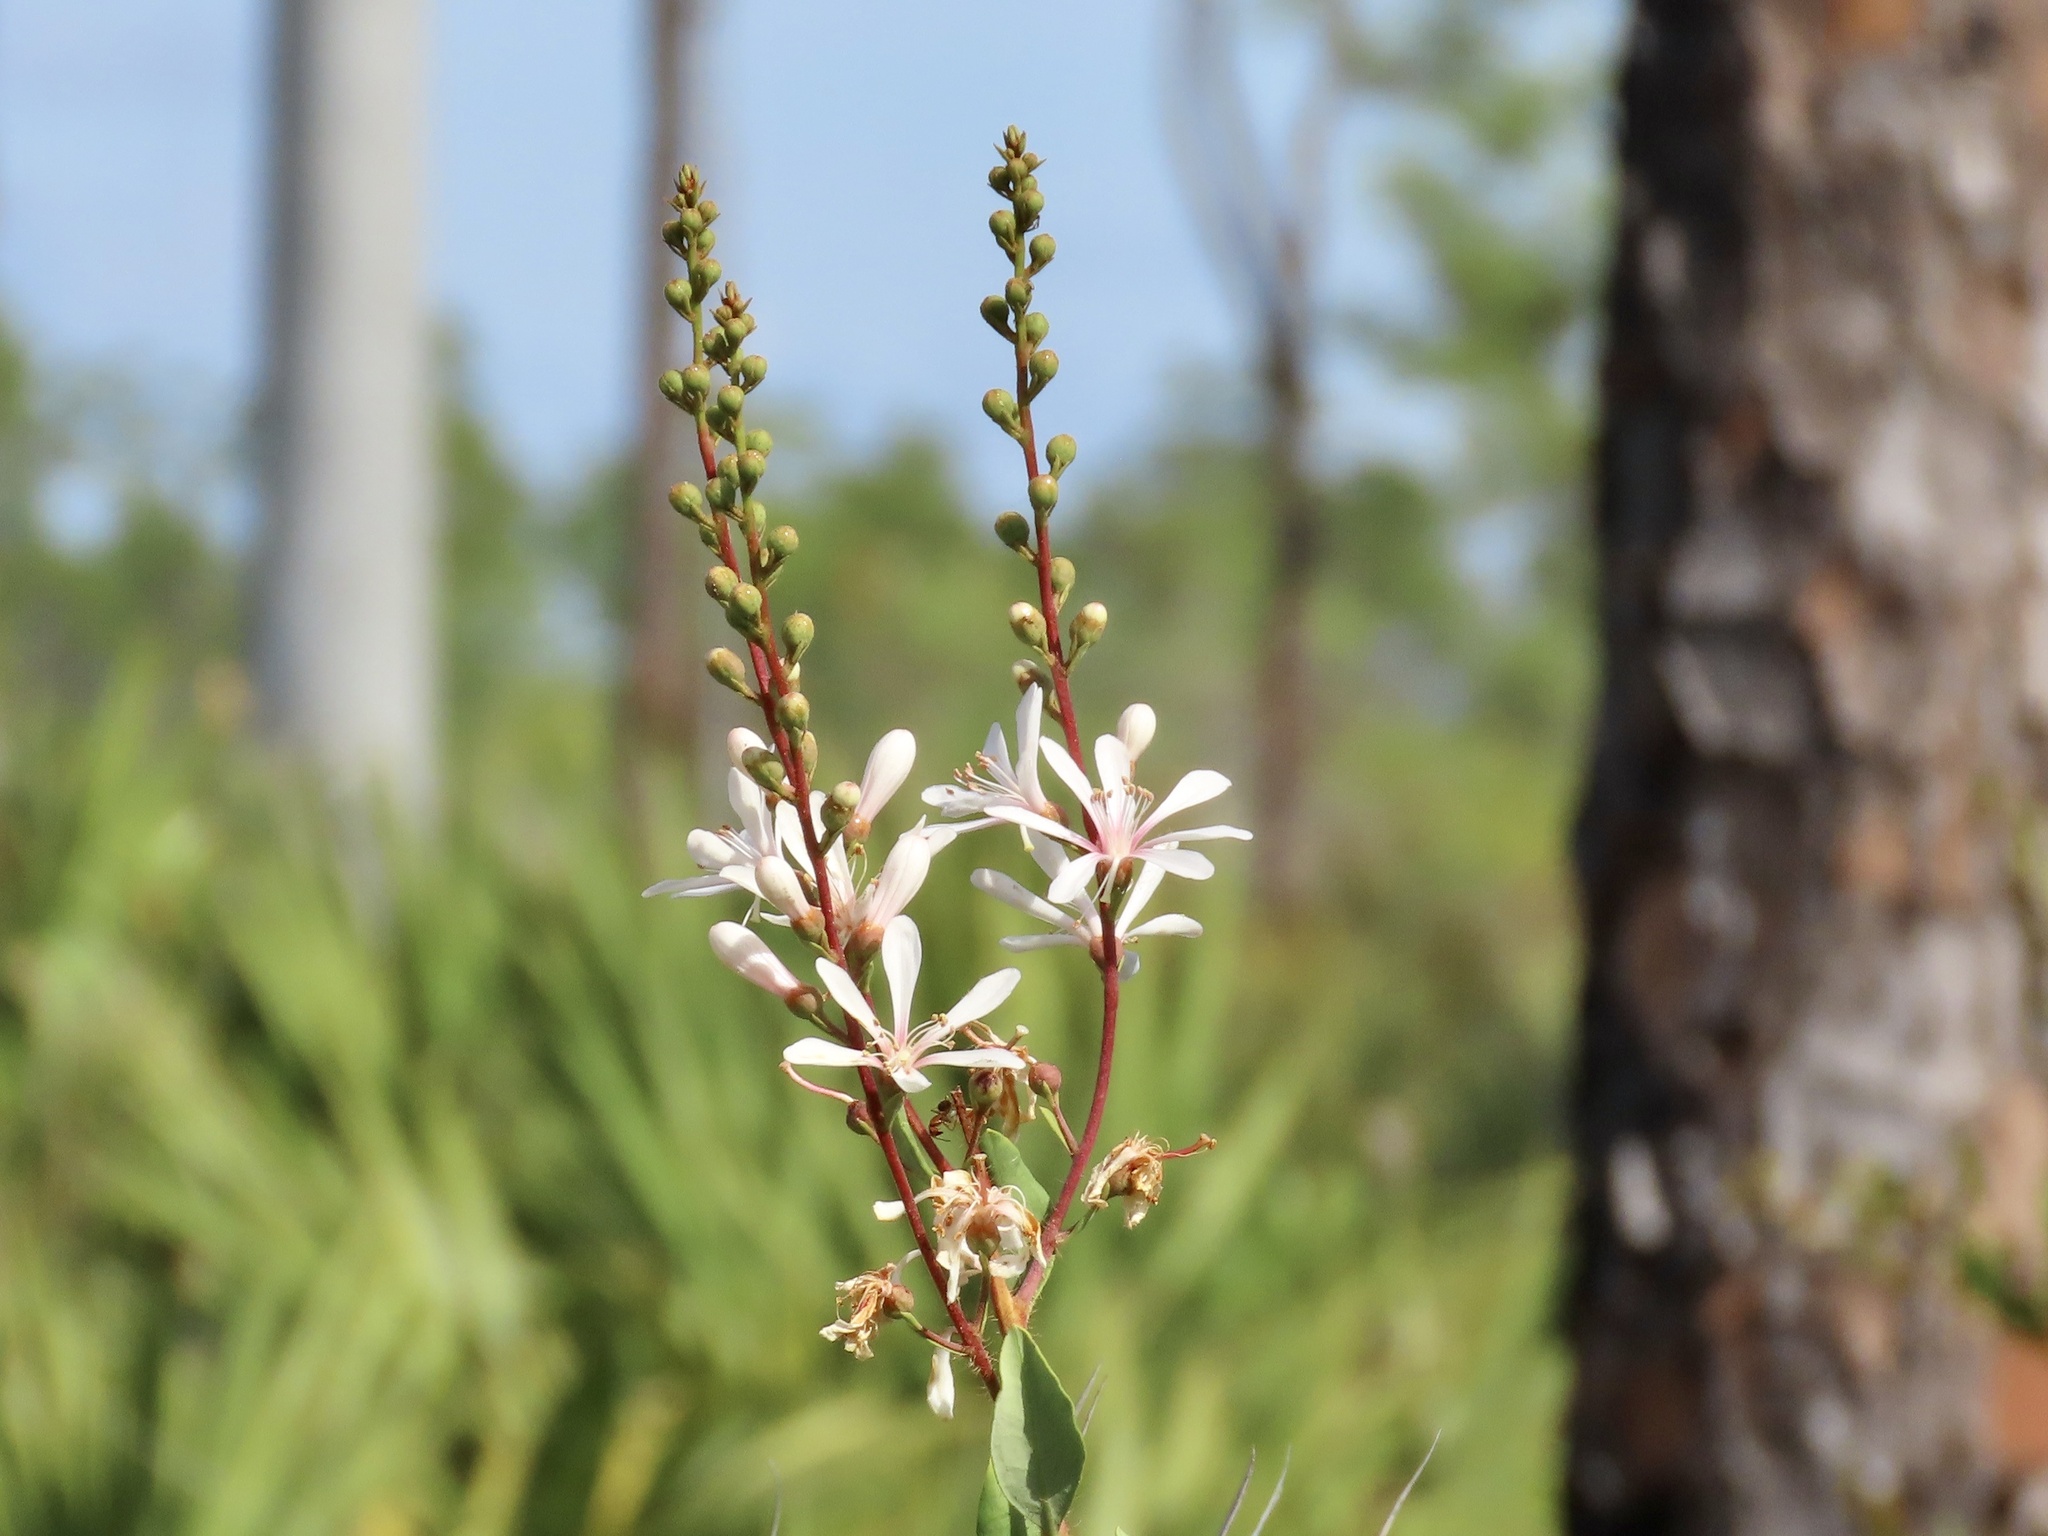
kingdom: Plantae
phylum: Tracheophyta
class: Magnoliopsida
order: Ericales
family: Ericaceae
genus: Bejaria
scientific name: Bejaria racemosa
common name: Tarflower
